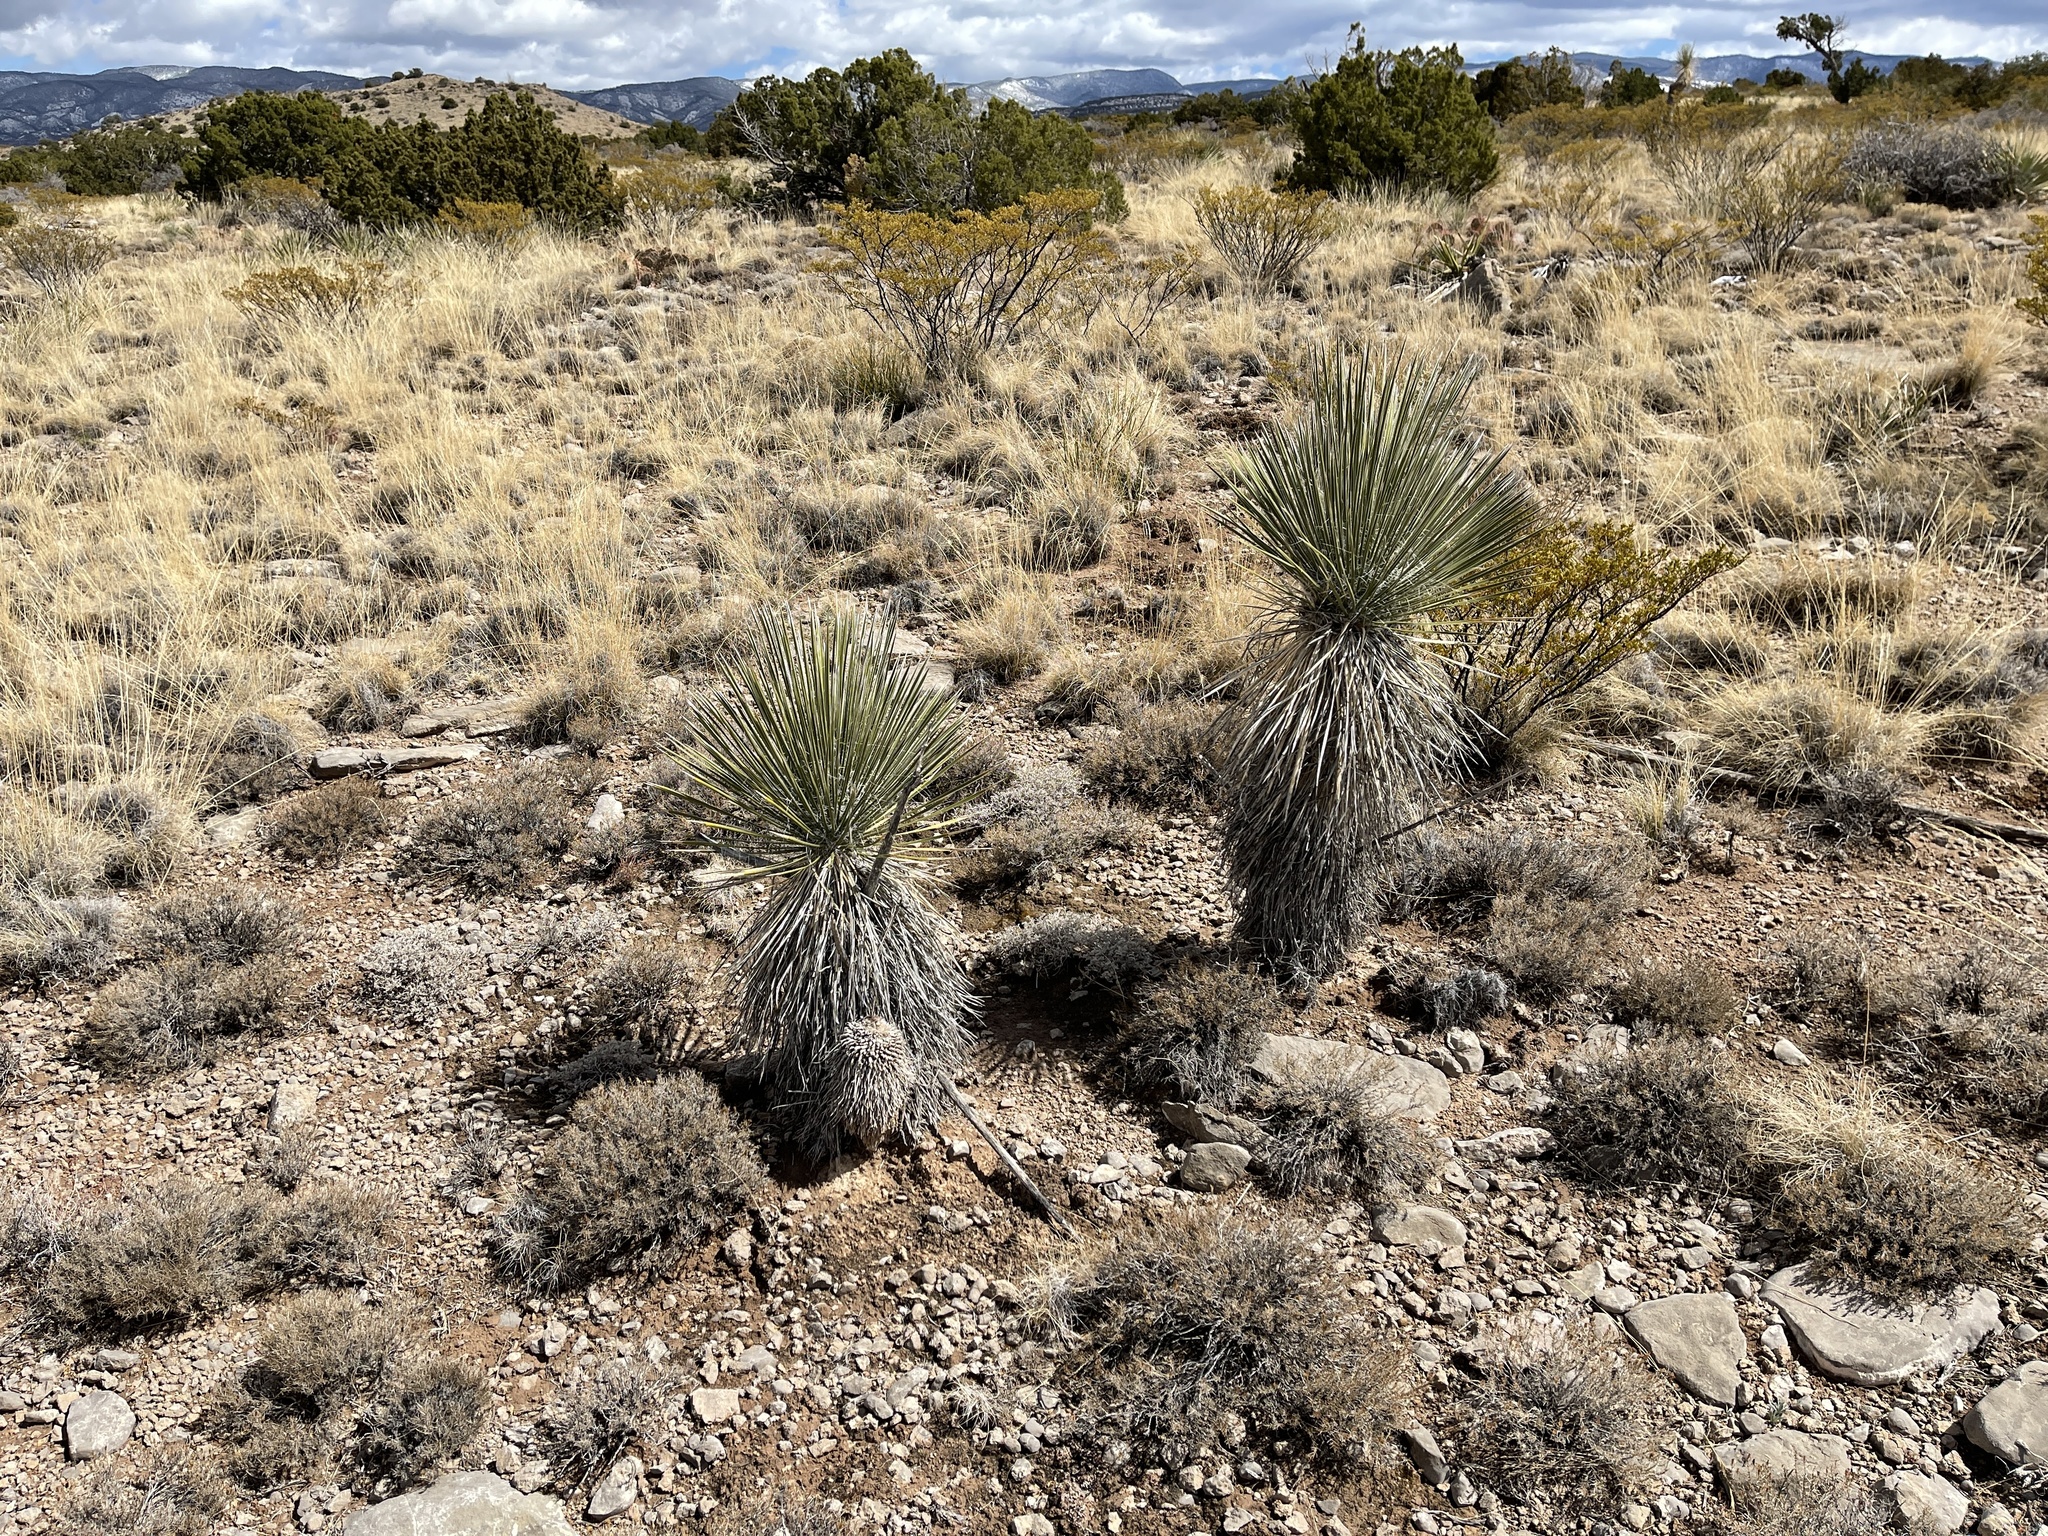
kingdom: Plantae
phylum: Tracheophyta
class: Liliopsida
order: Asparagales
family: Asparagaceae
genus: Yucca
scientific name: Yucca elata
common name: Palmella
